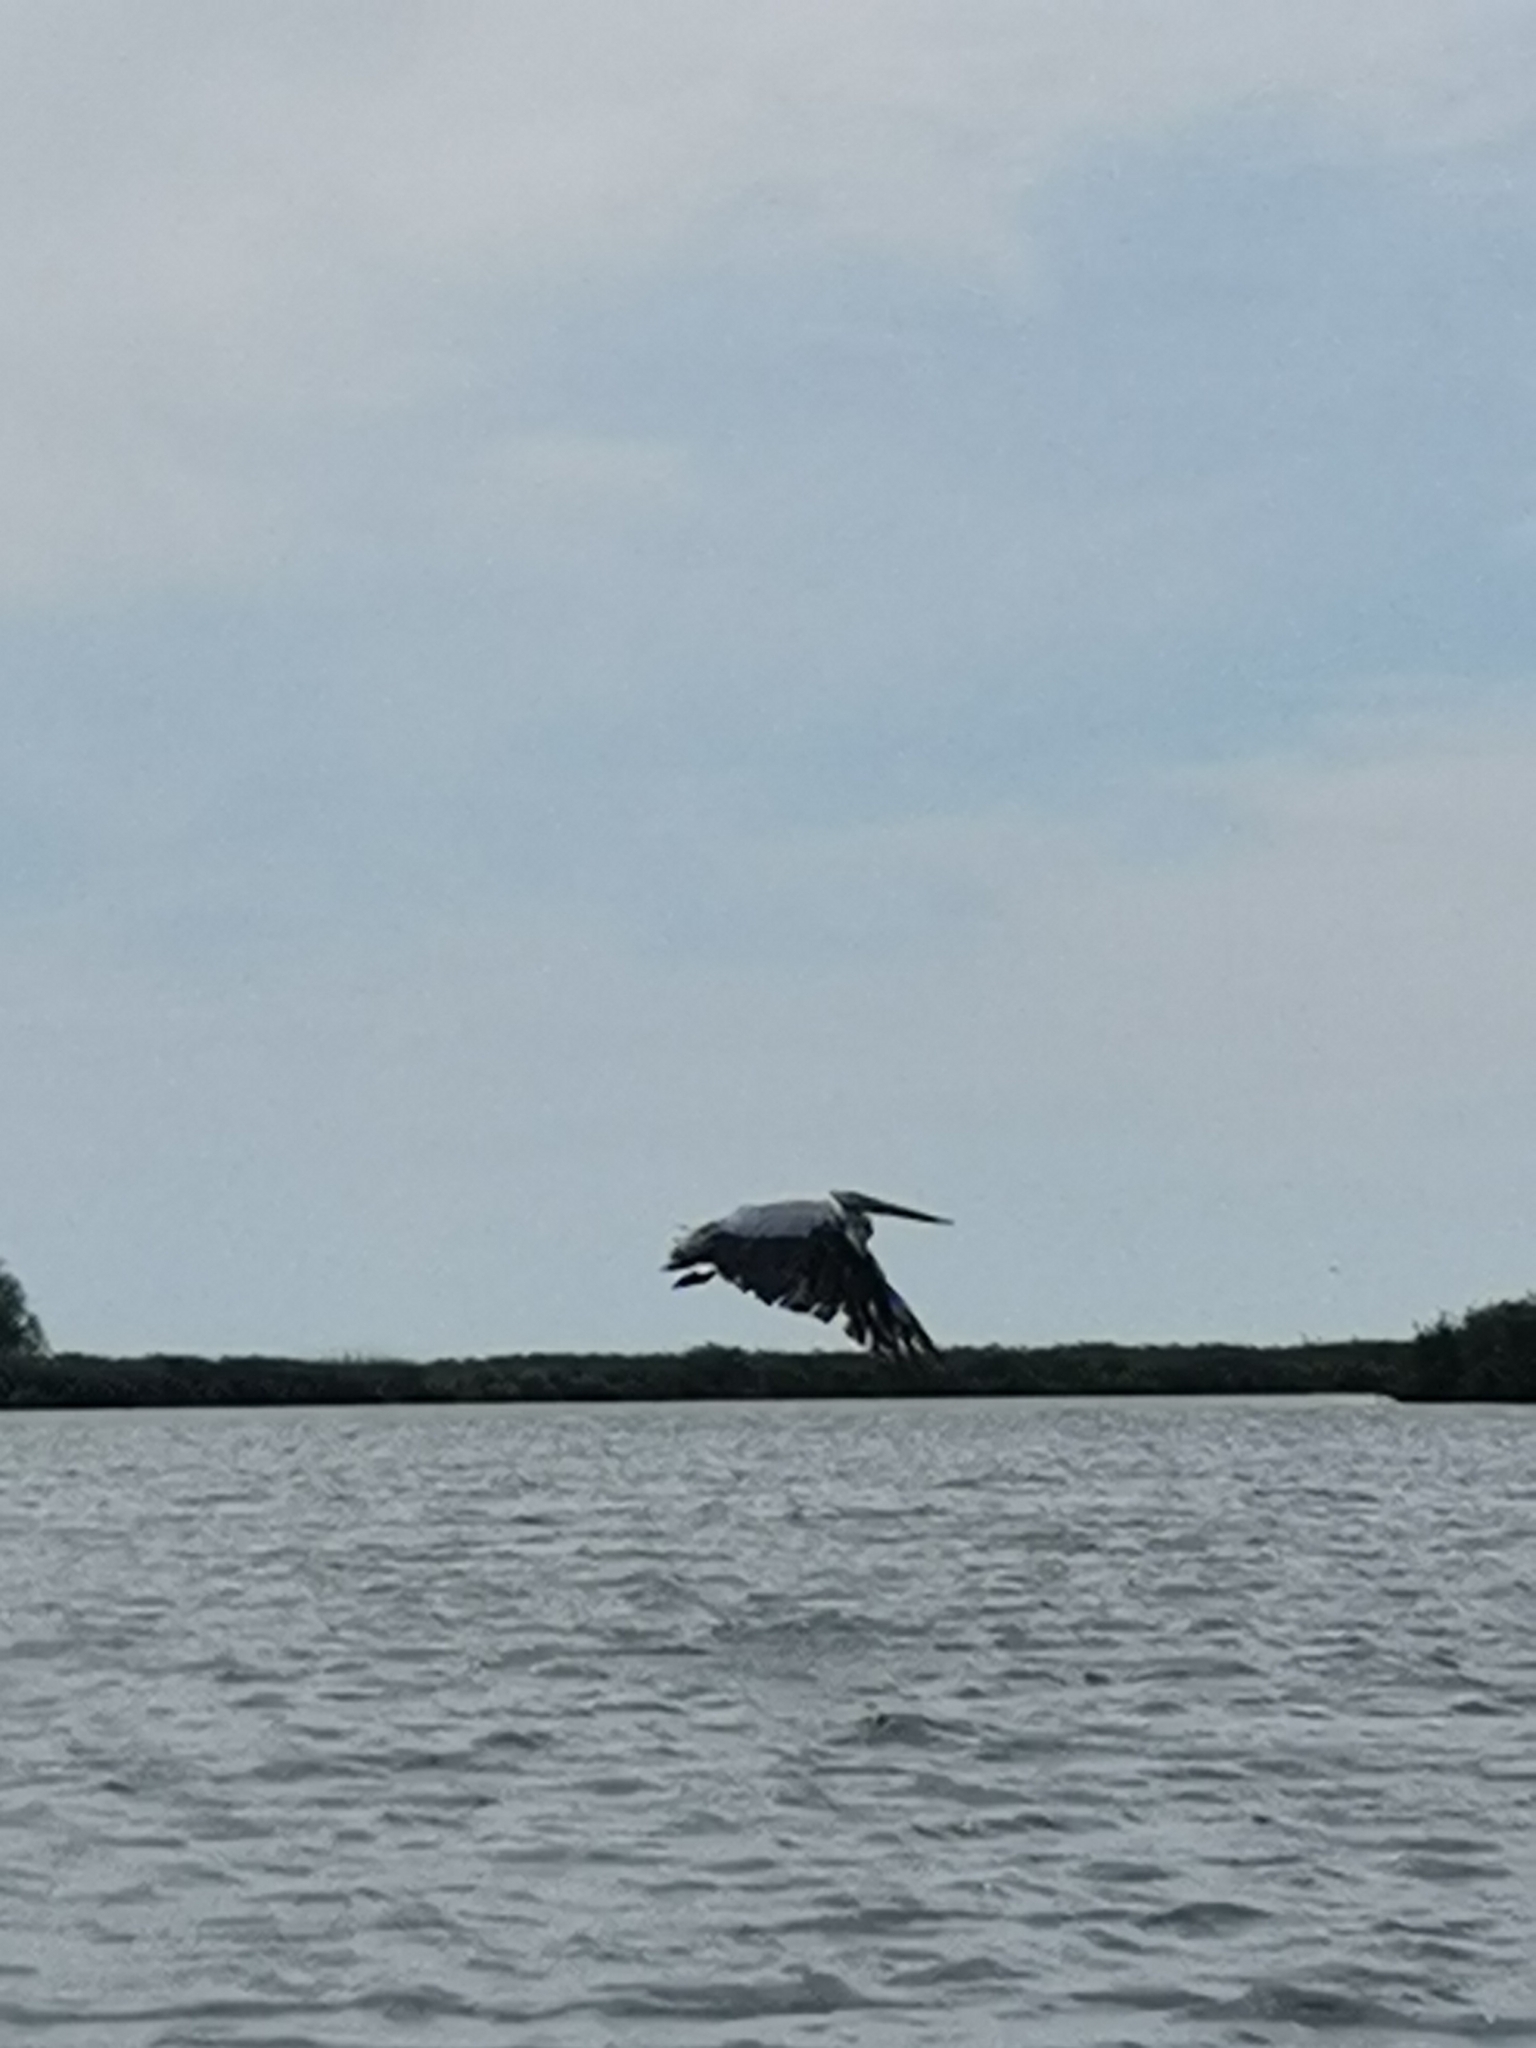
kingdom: Animalia
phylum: Chordata
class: Aves
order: Pelecaniformes
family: Pelecanidae
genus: Pelecanus
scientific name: Pelecanus onocrotalus
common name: Great white pelican
